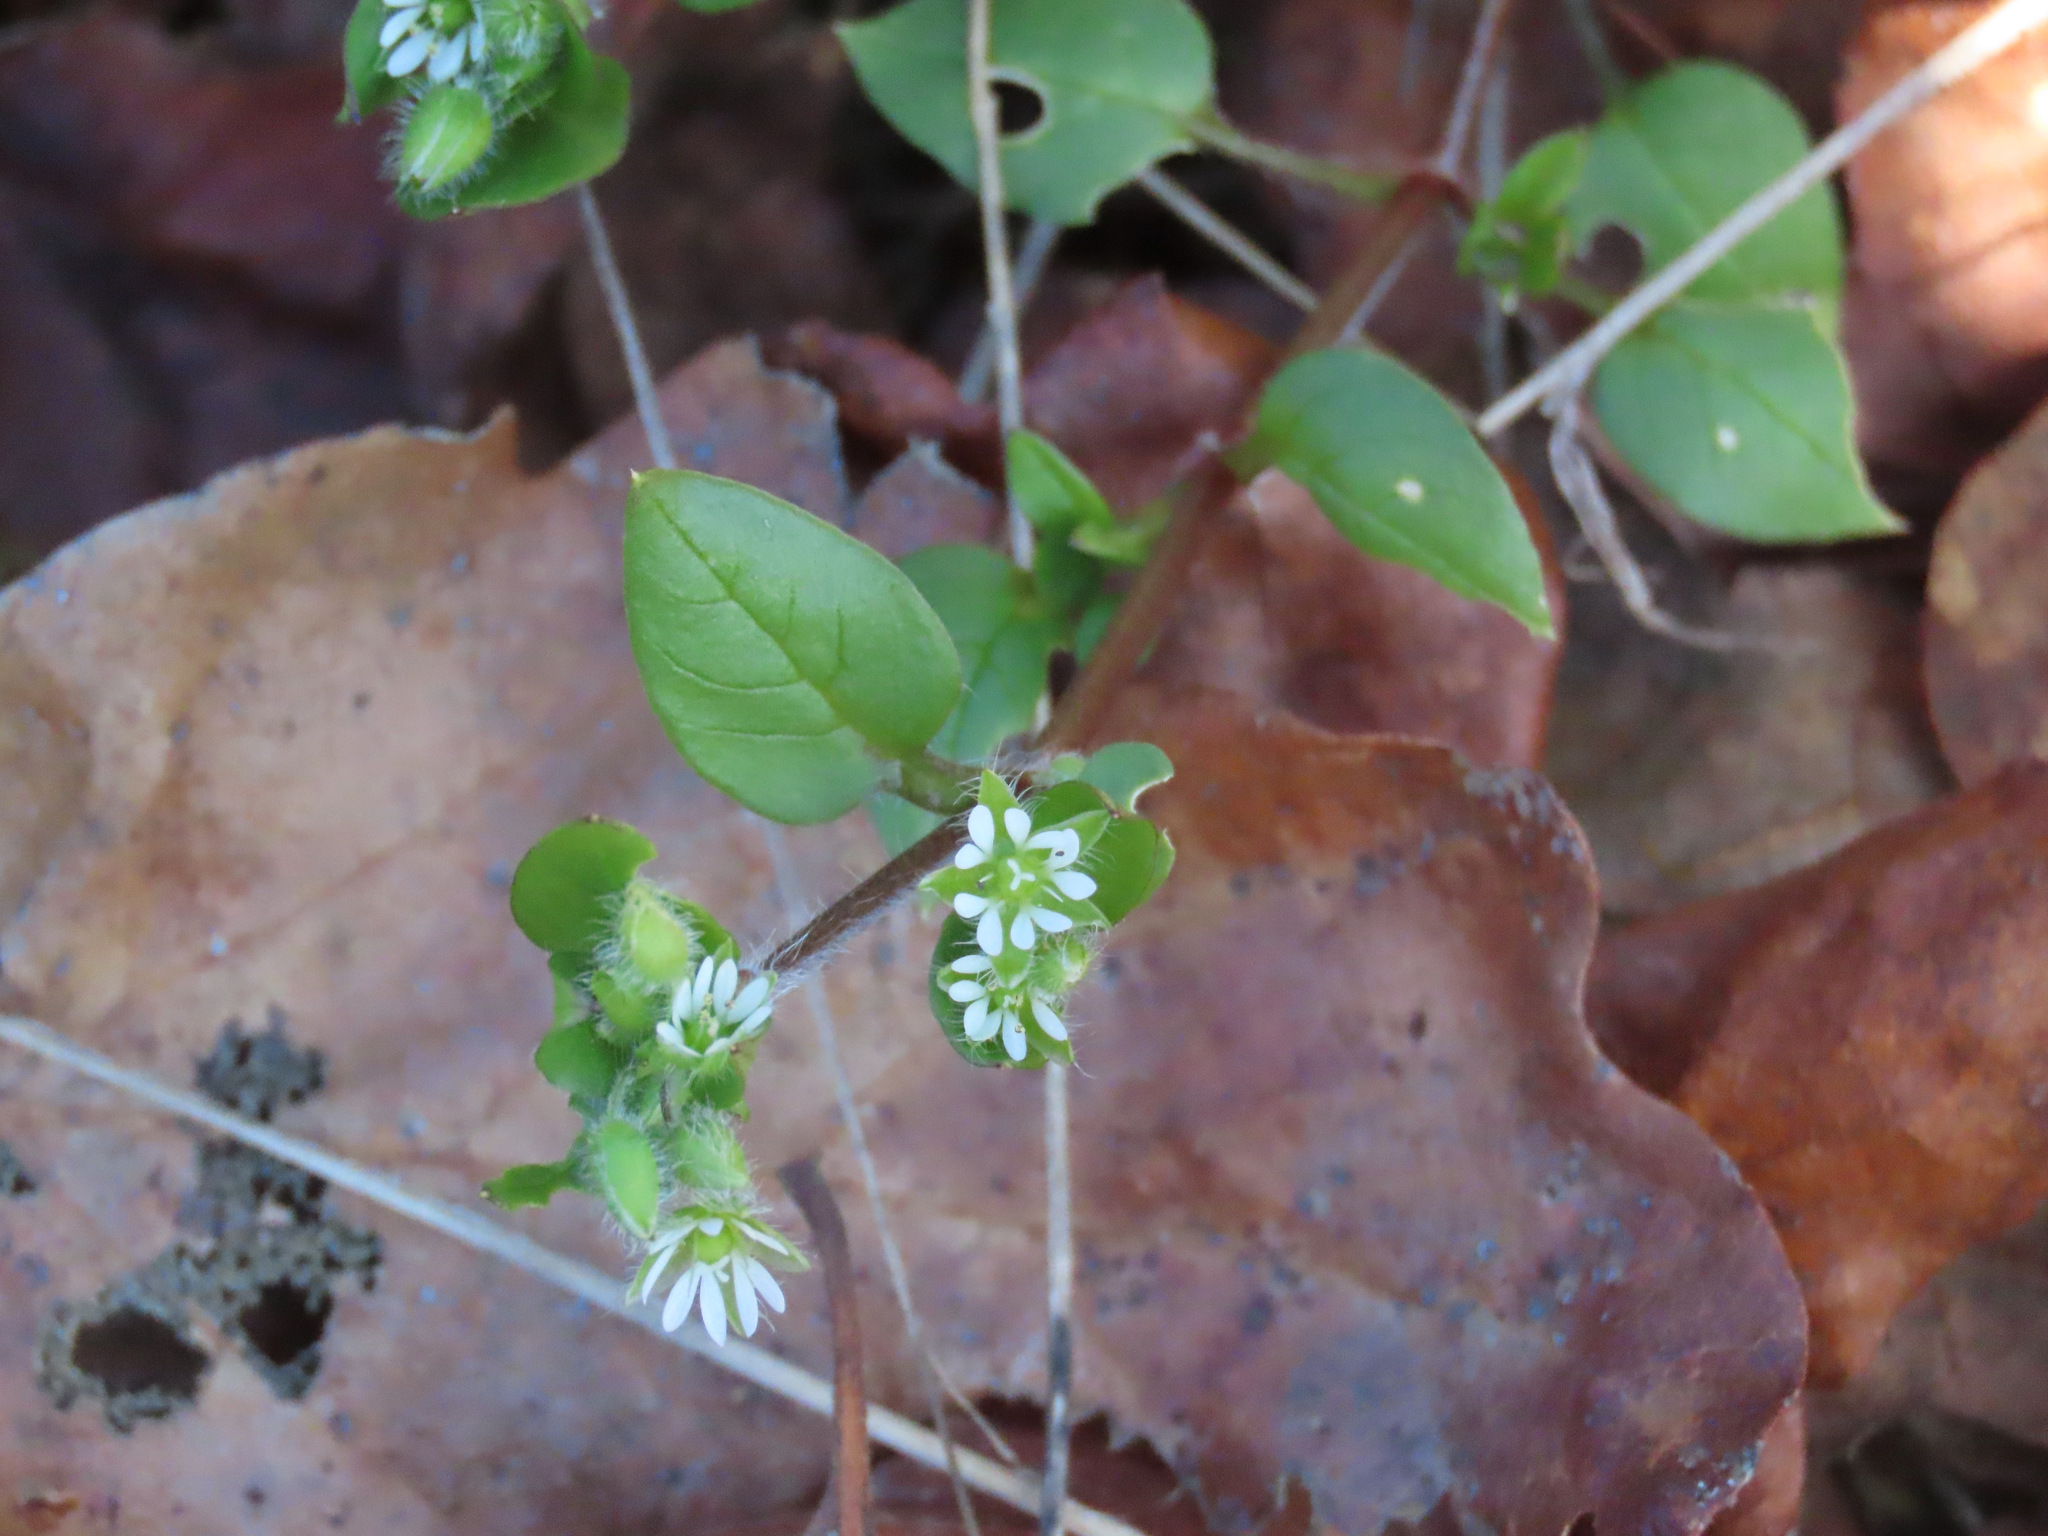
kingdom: Plantae
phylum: Tracheophyta
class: Magnoliopsida
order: Caryophyllales
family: Caryophyllaceae
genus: Stellaria
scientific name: Stellaria media
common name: Common chickweed
